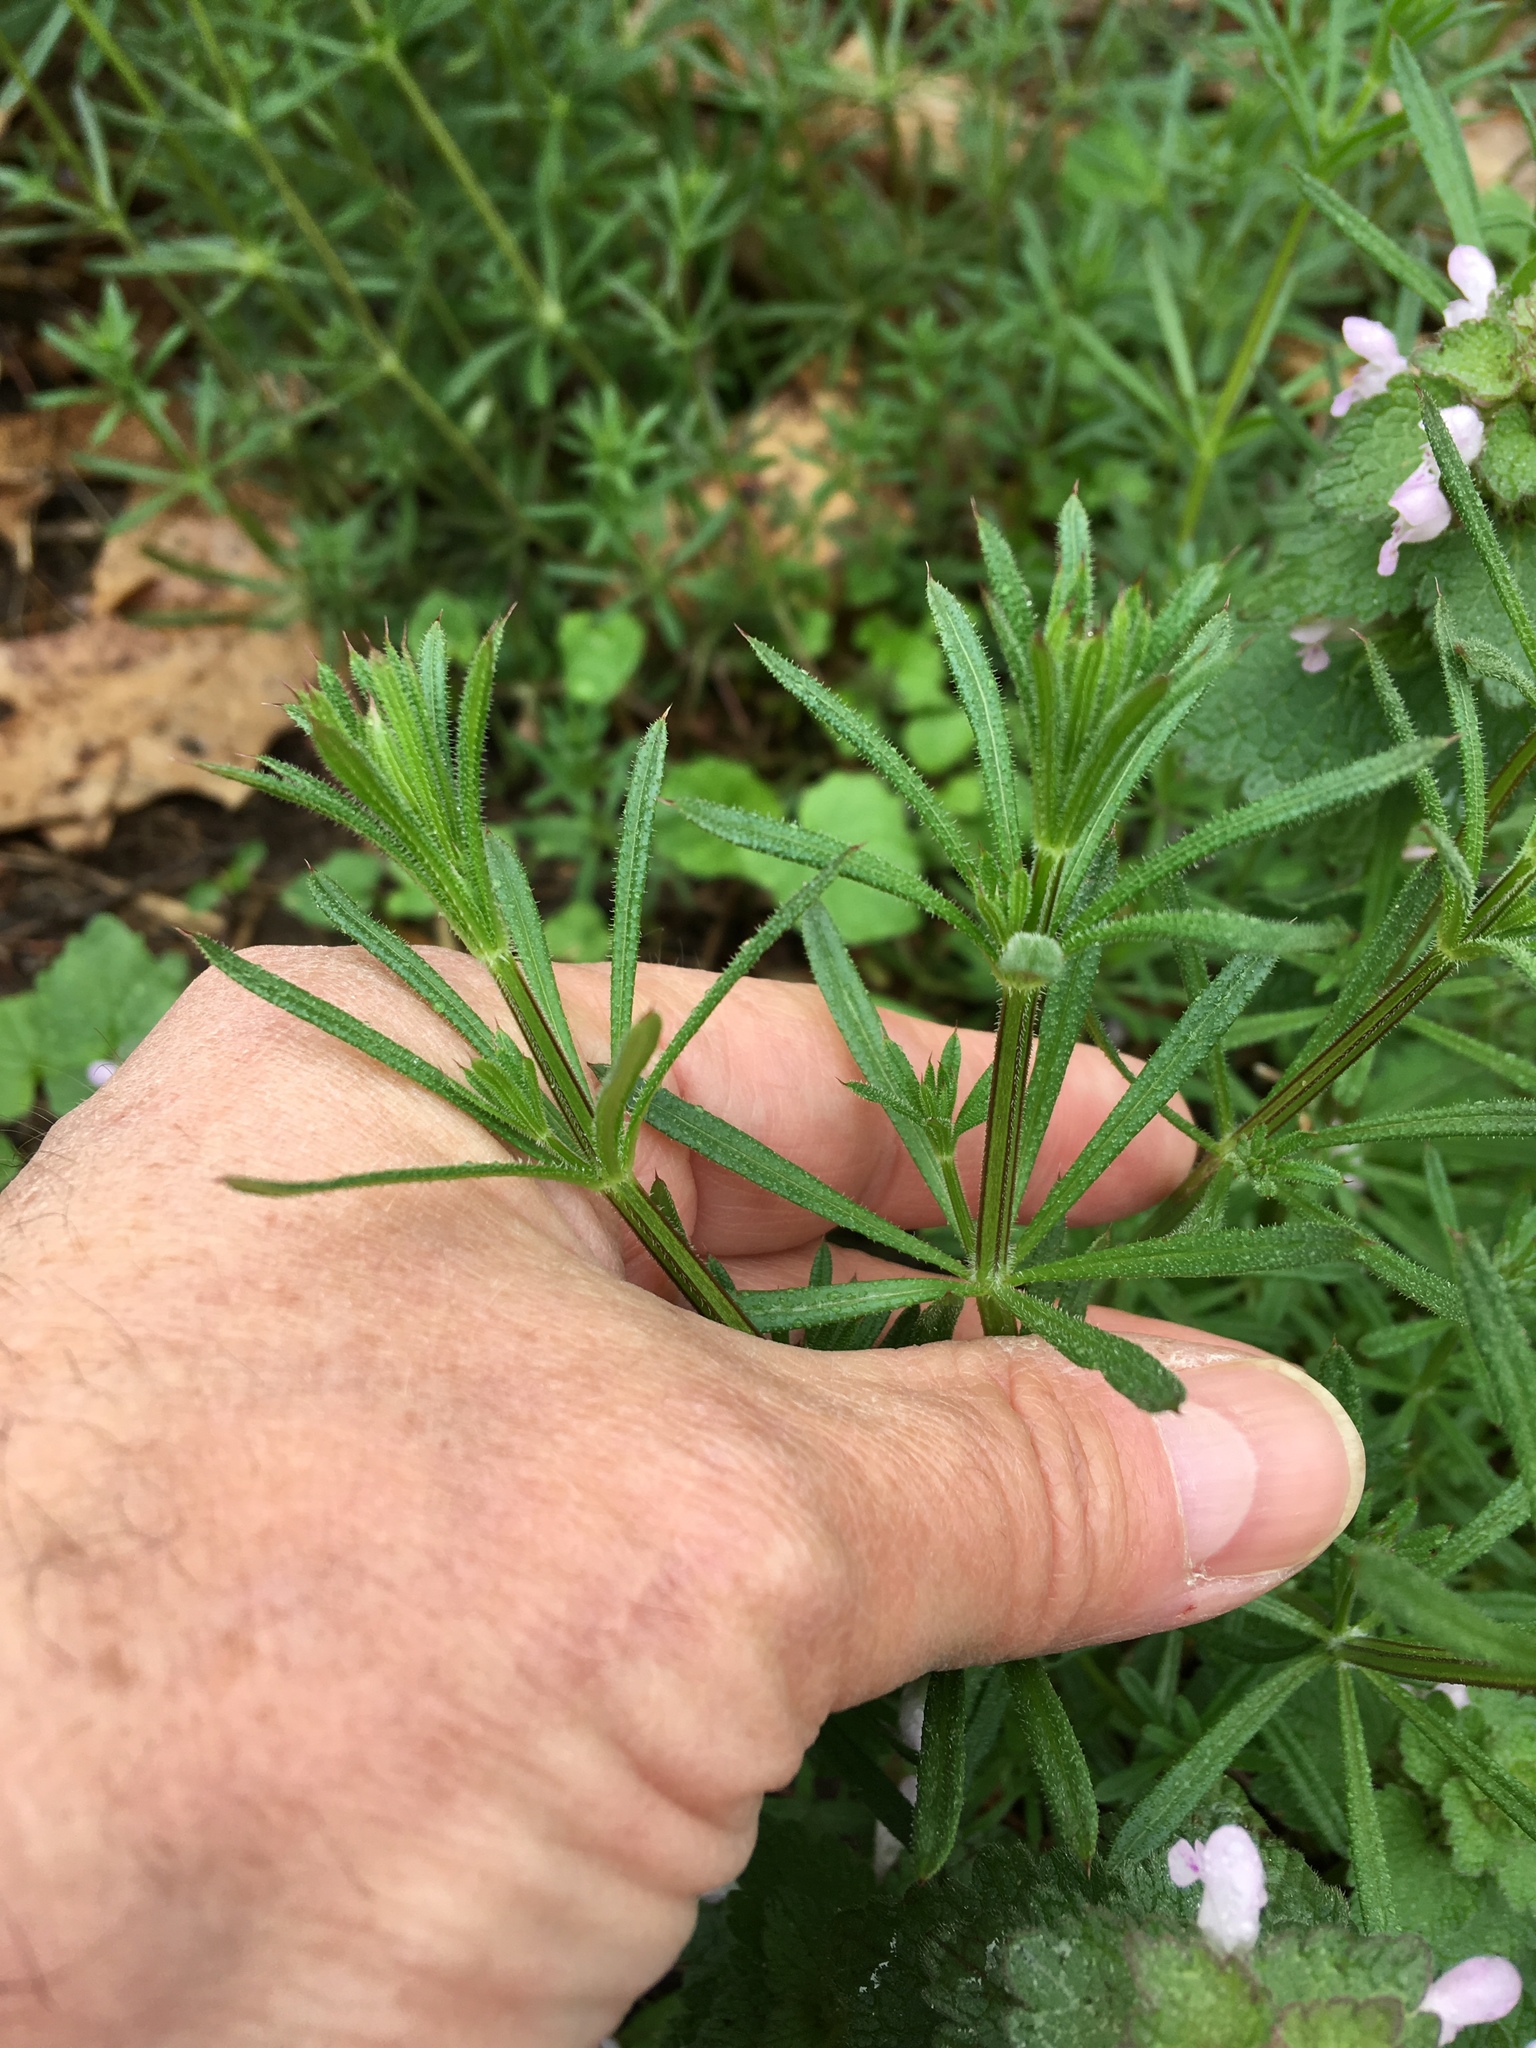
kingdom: Plantae
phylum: Tracheophyta
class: Magnoliopsida
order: Gentianales
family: Rubiaceae
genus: Galium
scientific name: Galium aparine
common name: Cleavers
